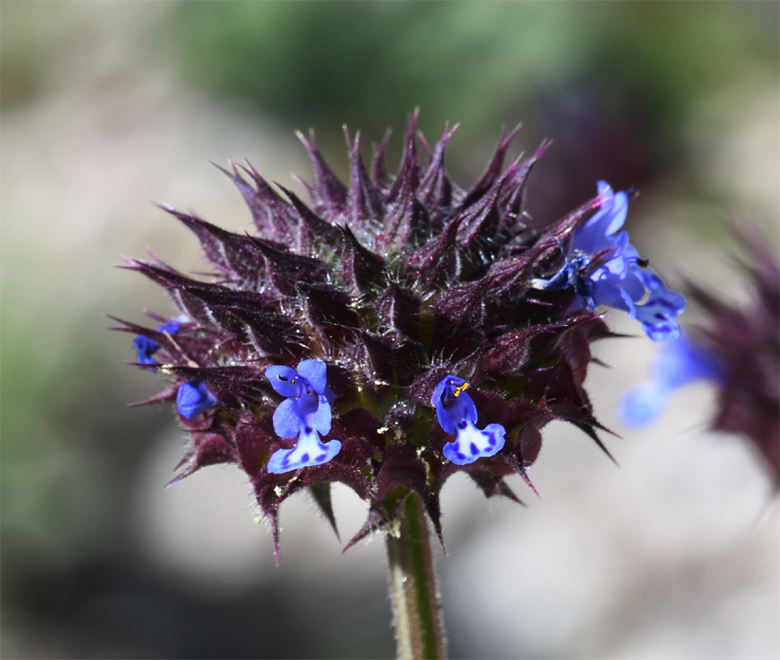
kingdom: Plantae
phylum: Tracheophyta
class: Magnoliopsida
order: Lamiales
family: Lamiaceae
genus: Salvia
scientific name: Salvia columbariae
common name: Chia
